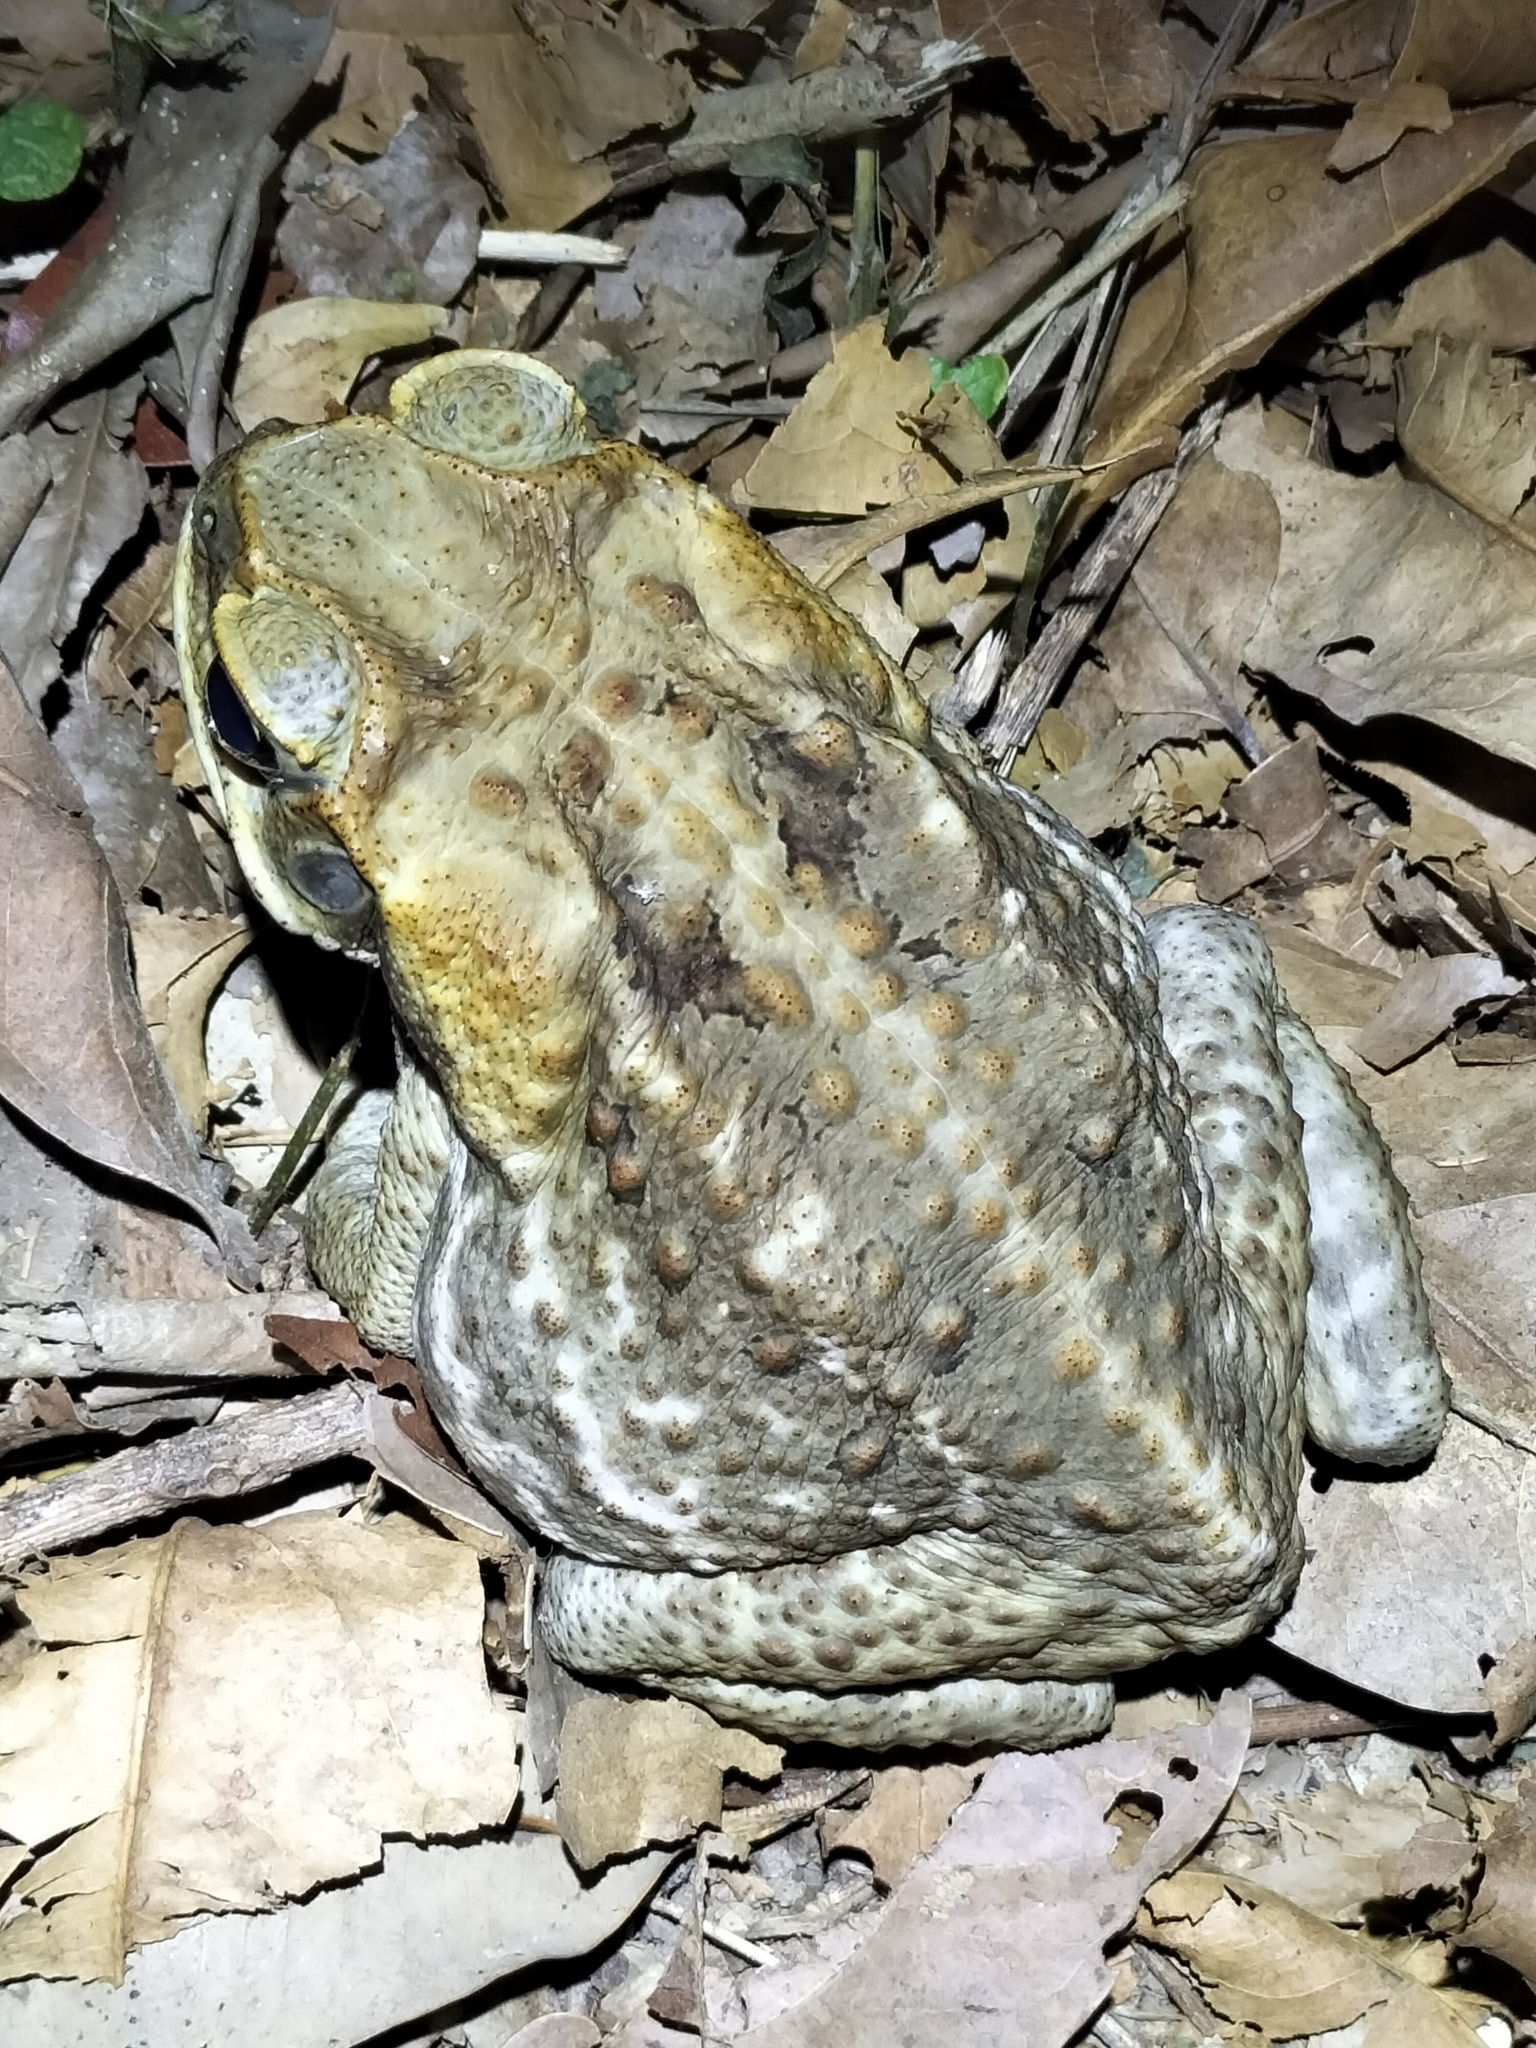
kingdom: Animalia
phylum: Chordata
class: Amphibia
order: Anura
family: Bufonidae
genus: Rhinella
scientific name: Rhinella marina
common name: Cane toad
